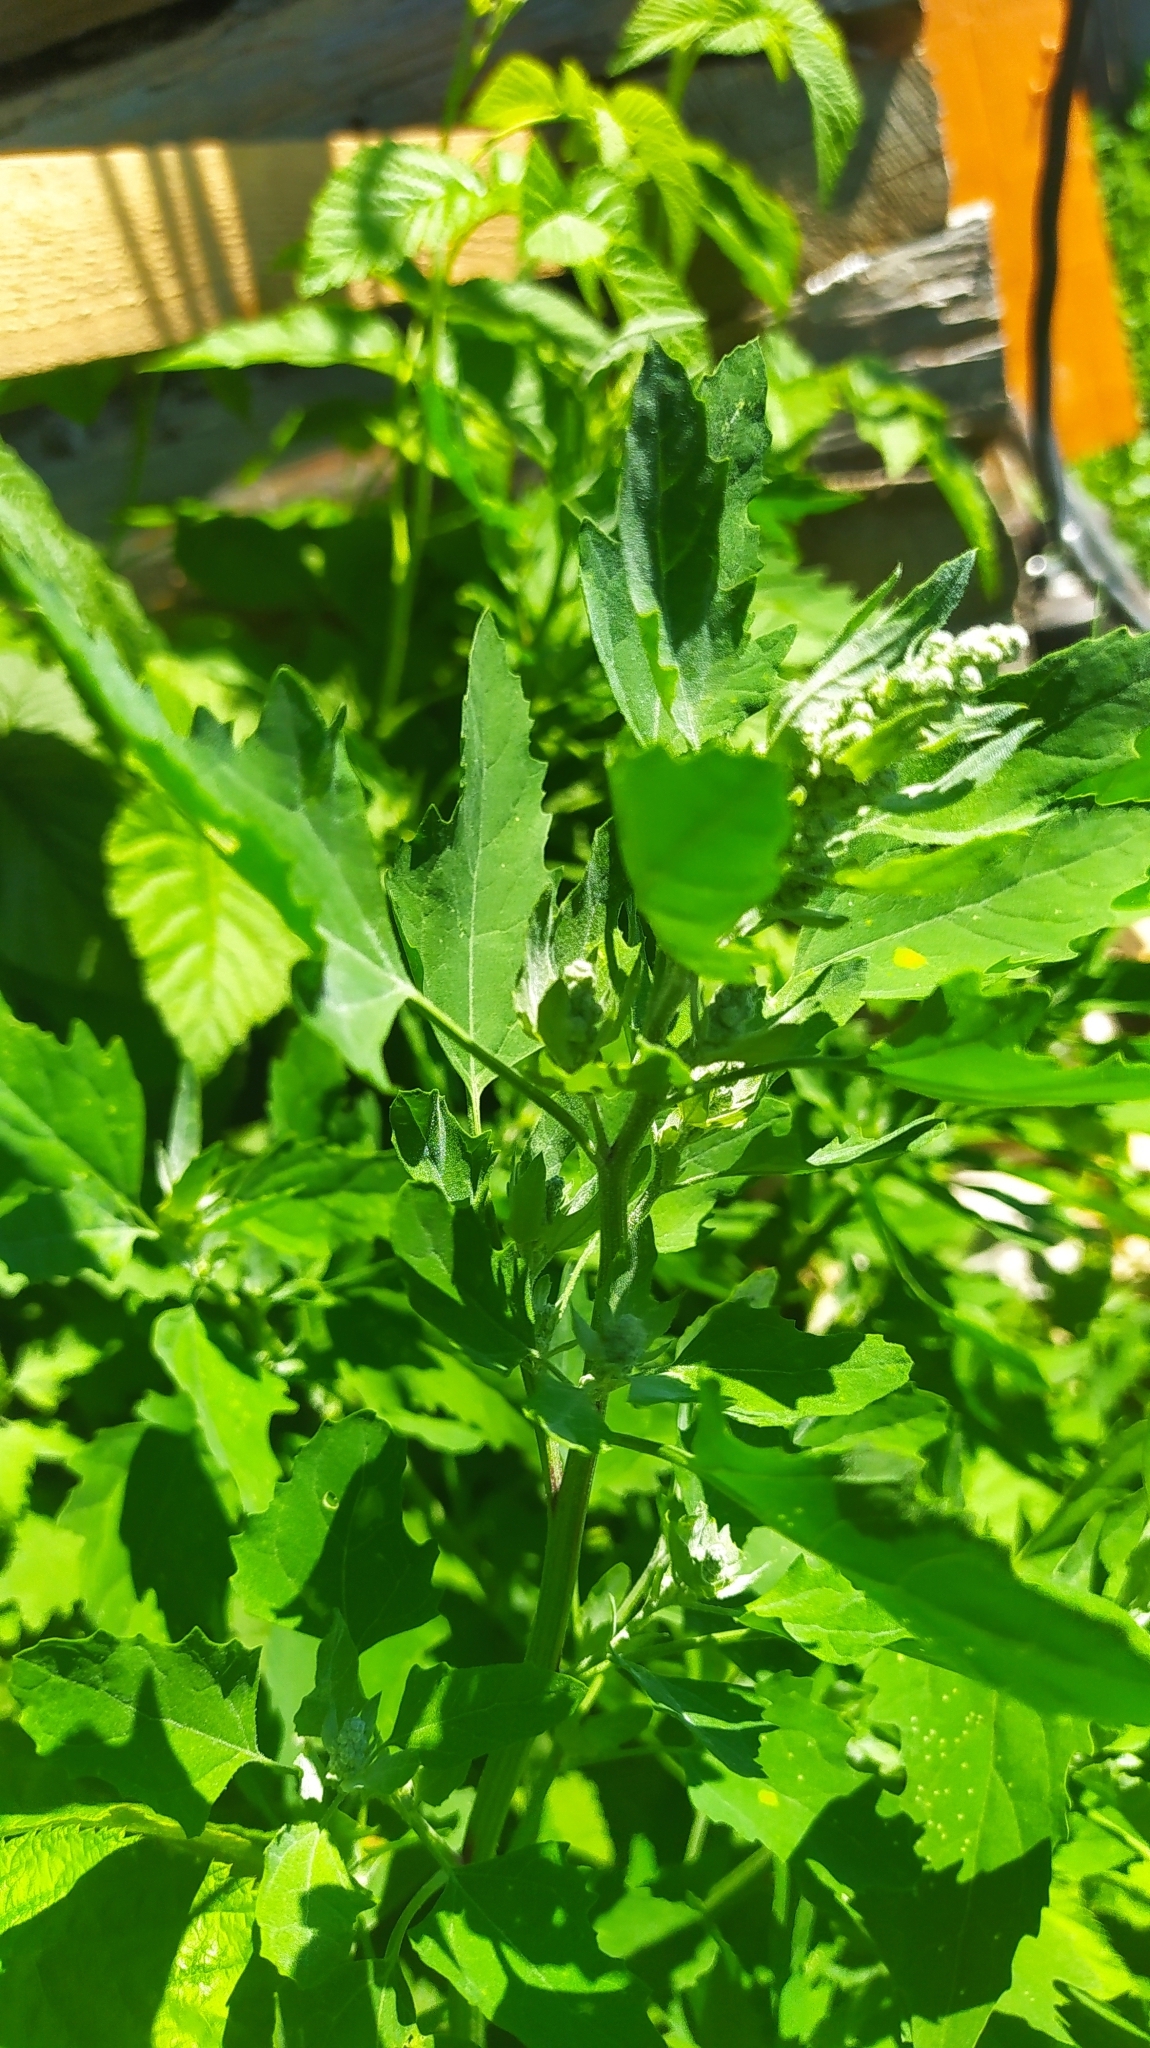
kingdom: Plantae
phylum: Tracheophyta
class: Magnoliopsida
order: Caryophyllales
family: Amaranthaceae
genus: Chenopodium
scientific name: Chenopodium album
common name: Fat-hen
